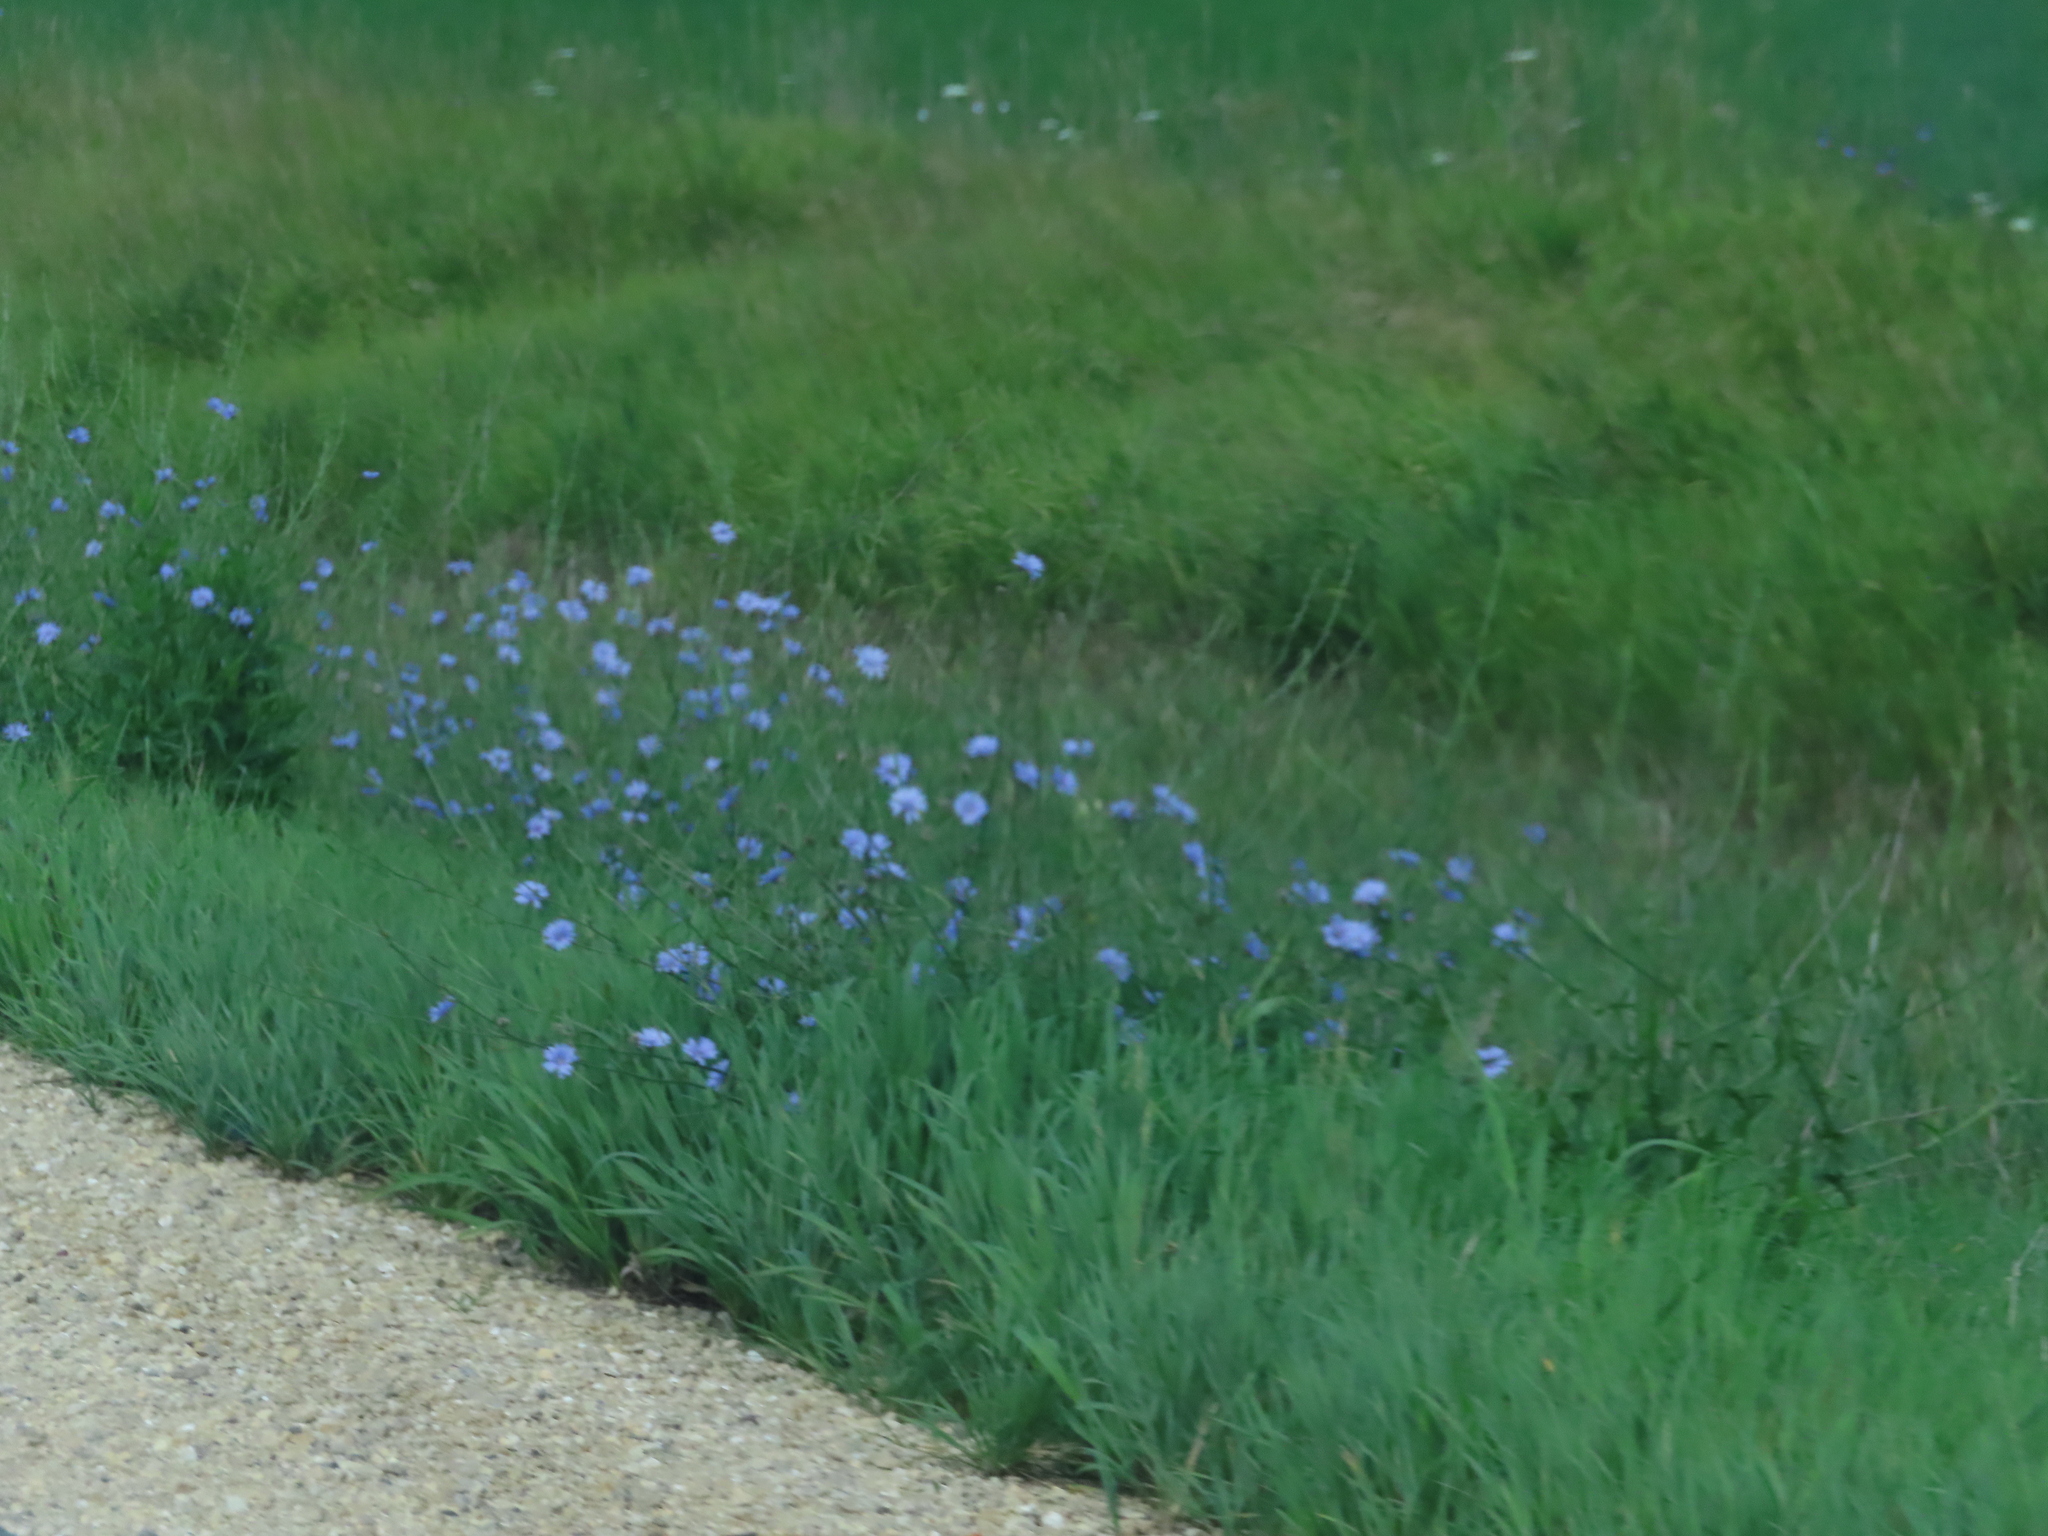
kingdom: Plantae
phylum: Tracheophyta
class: Magnoliopsida
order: Asterales
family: Asteraceae
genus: Cichorium
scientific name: Cichorium intybus
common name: Chicory
